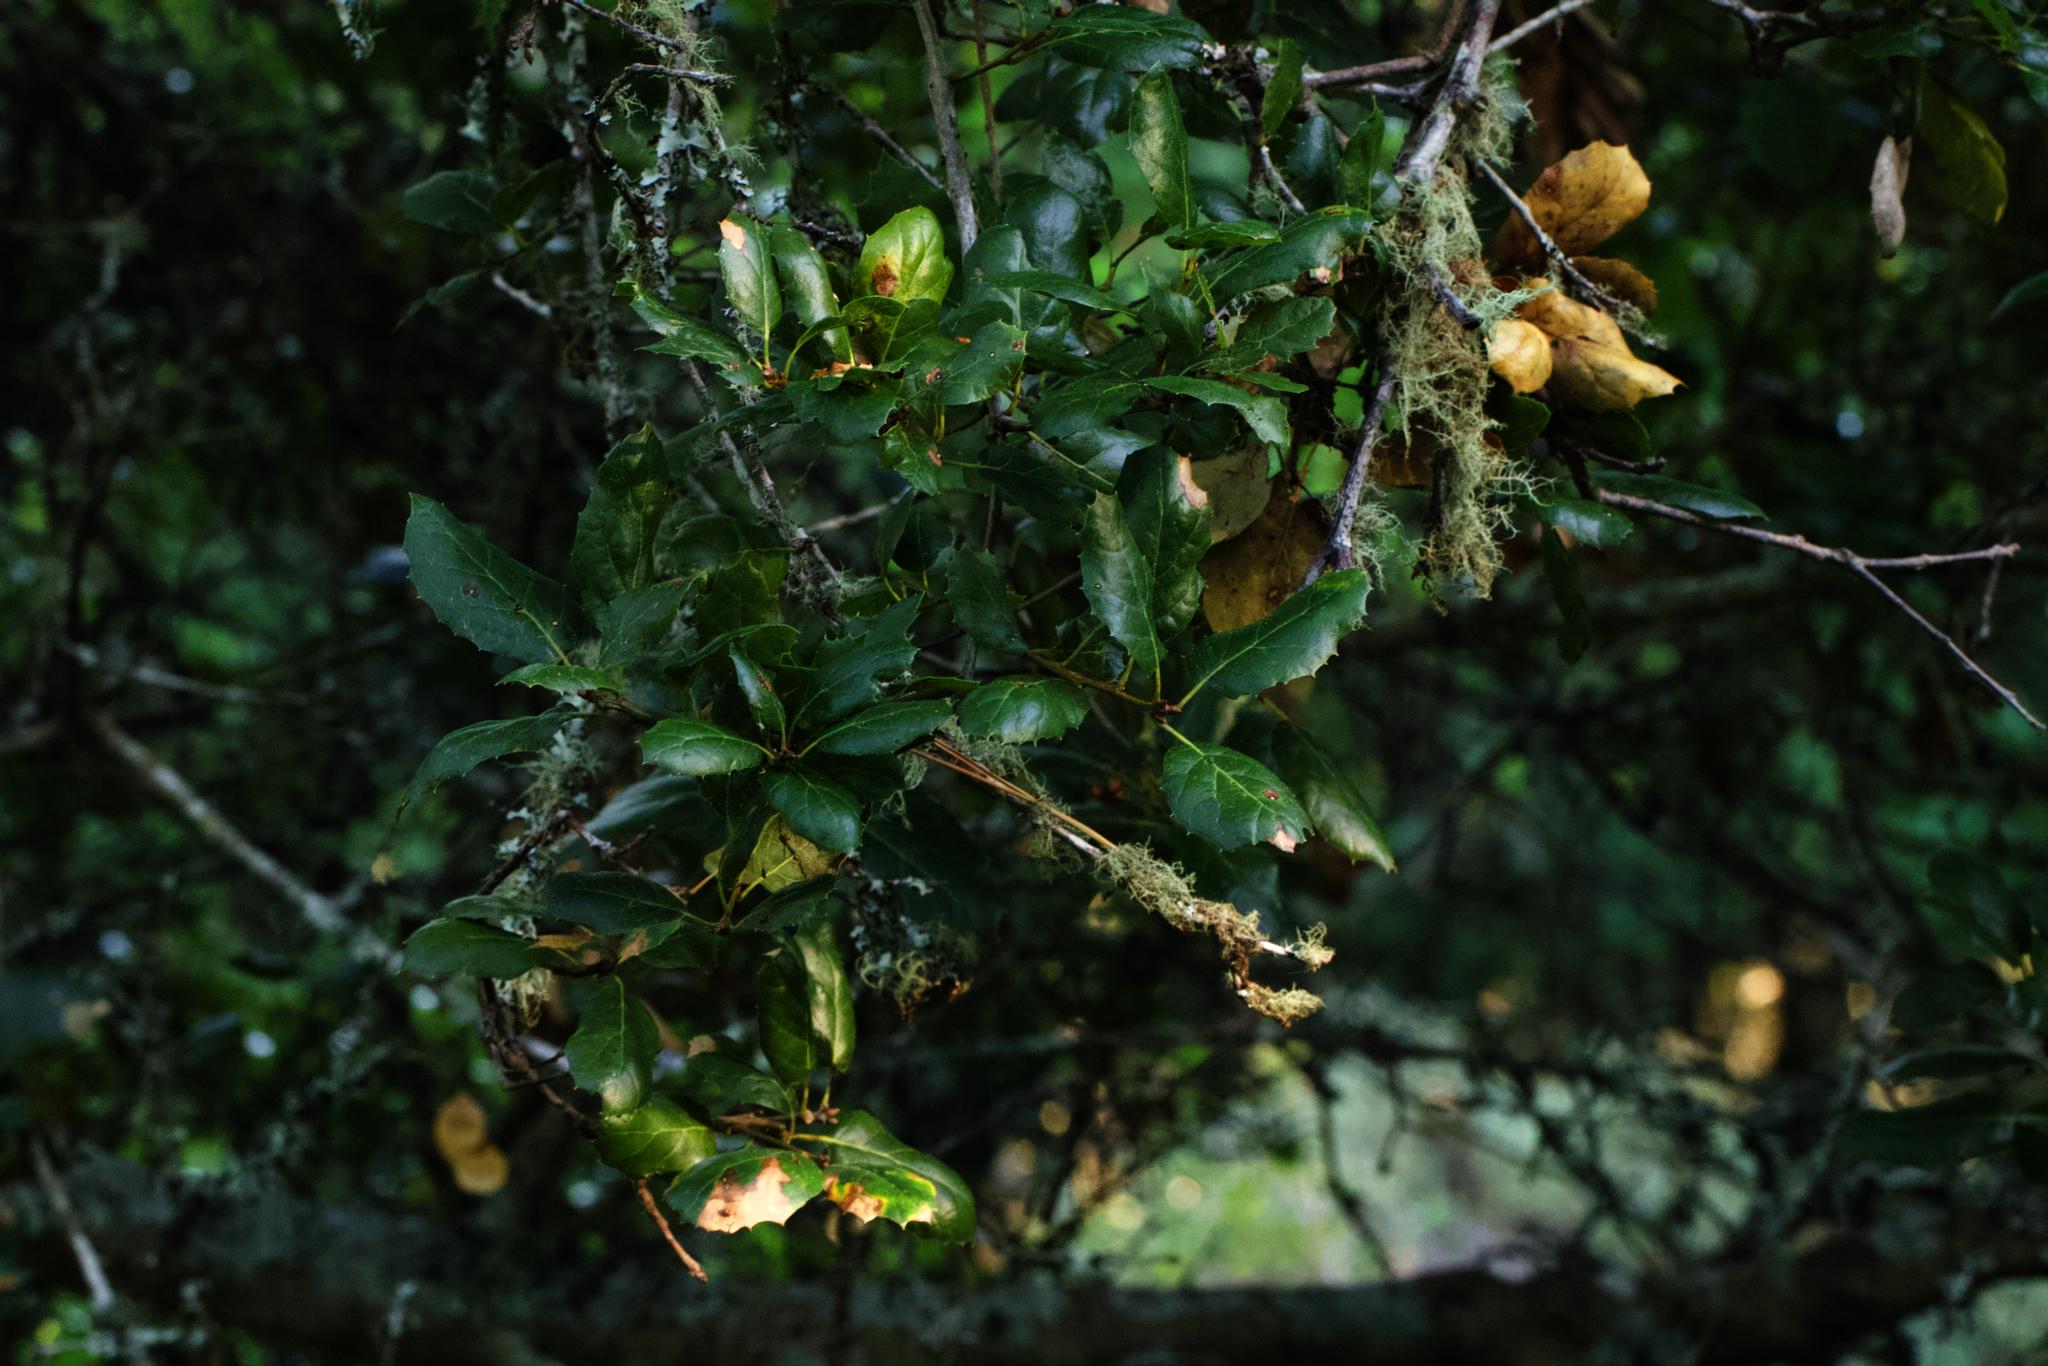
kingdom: Plantae
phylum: Tracheophyta
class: Magnoliopsida
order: Fagales
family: Fagaceae
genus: Quercus
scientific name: Quercus agrifolia
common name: California live oak
